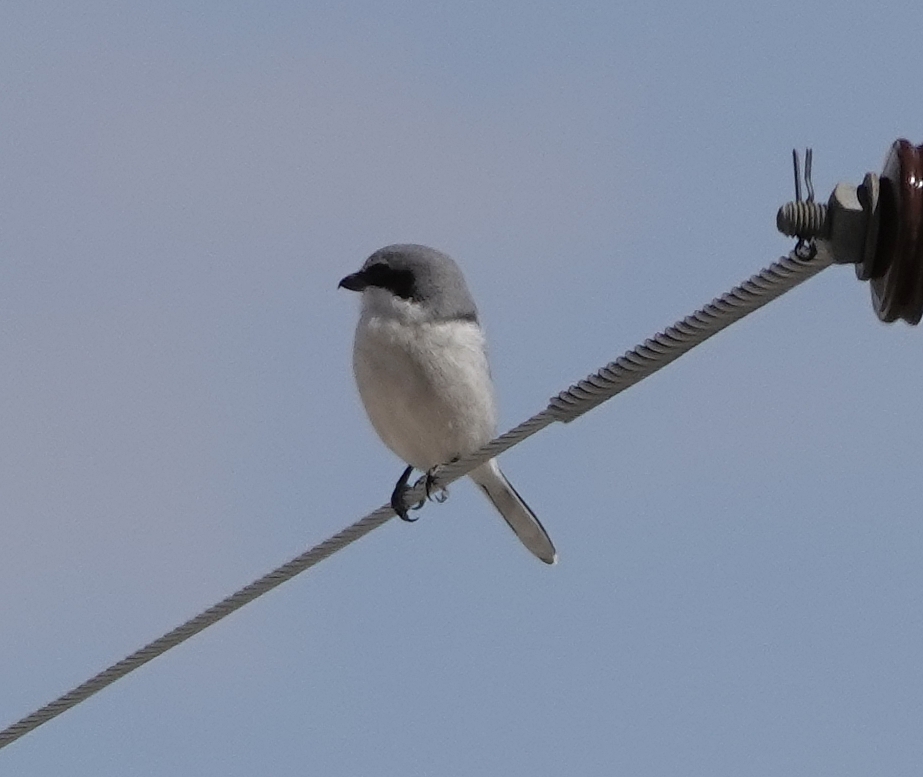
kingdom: Animalia
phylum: Chordata
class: Aves
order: Passeriformes
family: Laniidae
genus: Lanius
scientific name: Lanius ludovicianus
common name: Loggerhead shrike
